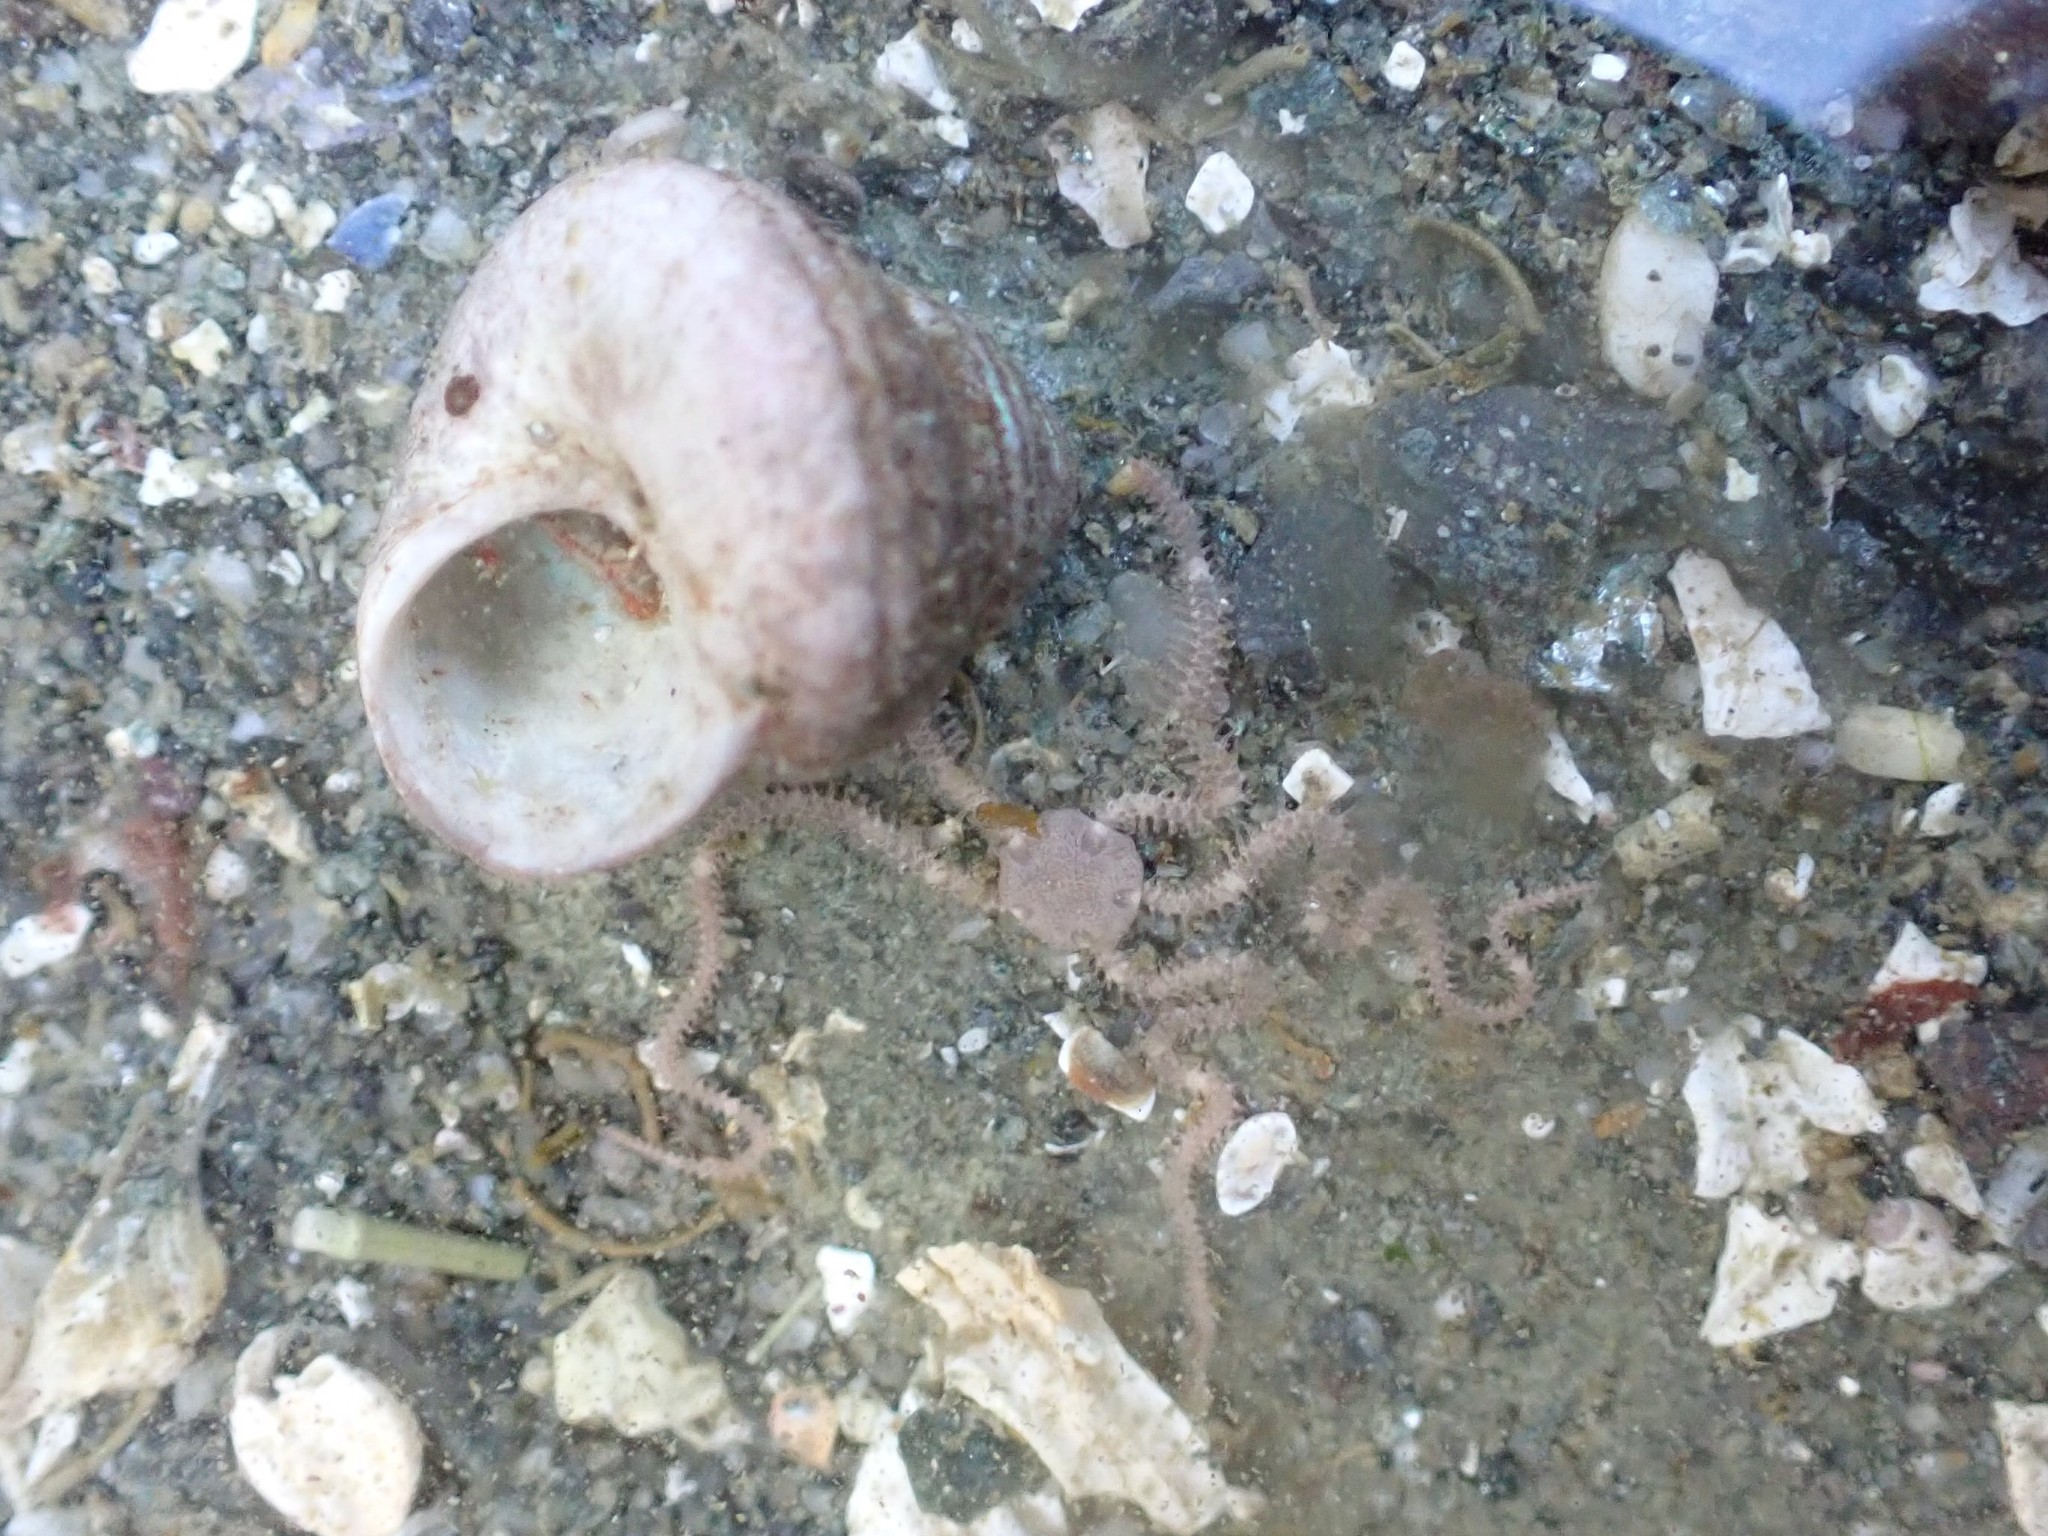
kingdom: Animalia
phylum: Echinodermata
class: Ophiuroidea
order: Amphilepidida
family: Amphiuridae
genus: Amphiodia
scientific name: Amphiodia occidentalis
